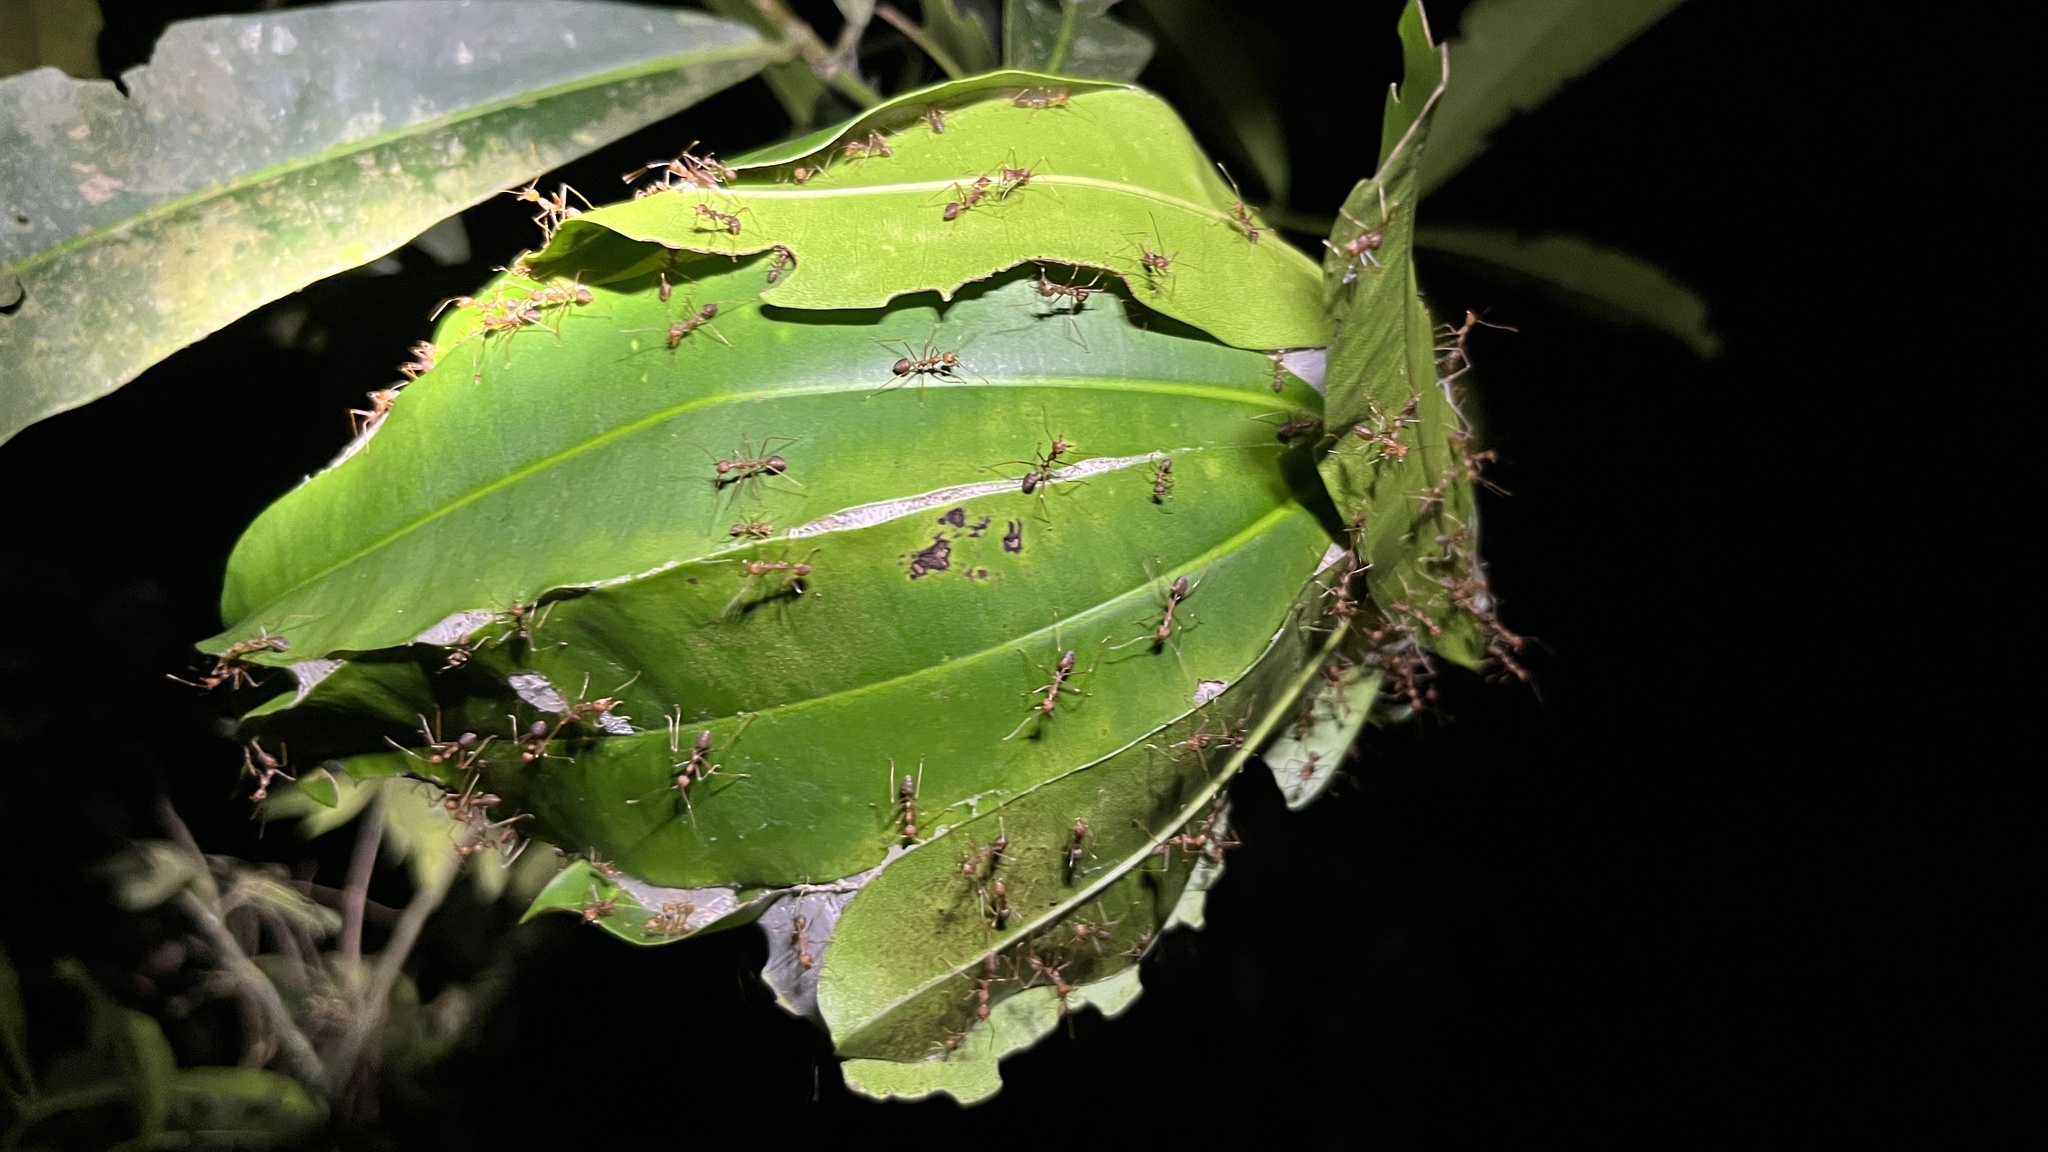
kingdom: Animalia
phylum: Arthropoda
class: Insecta
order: Hymenoptera
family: Formicidae
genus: Oecophylla
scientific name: Oecophylla smaragdina
